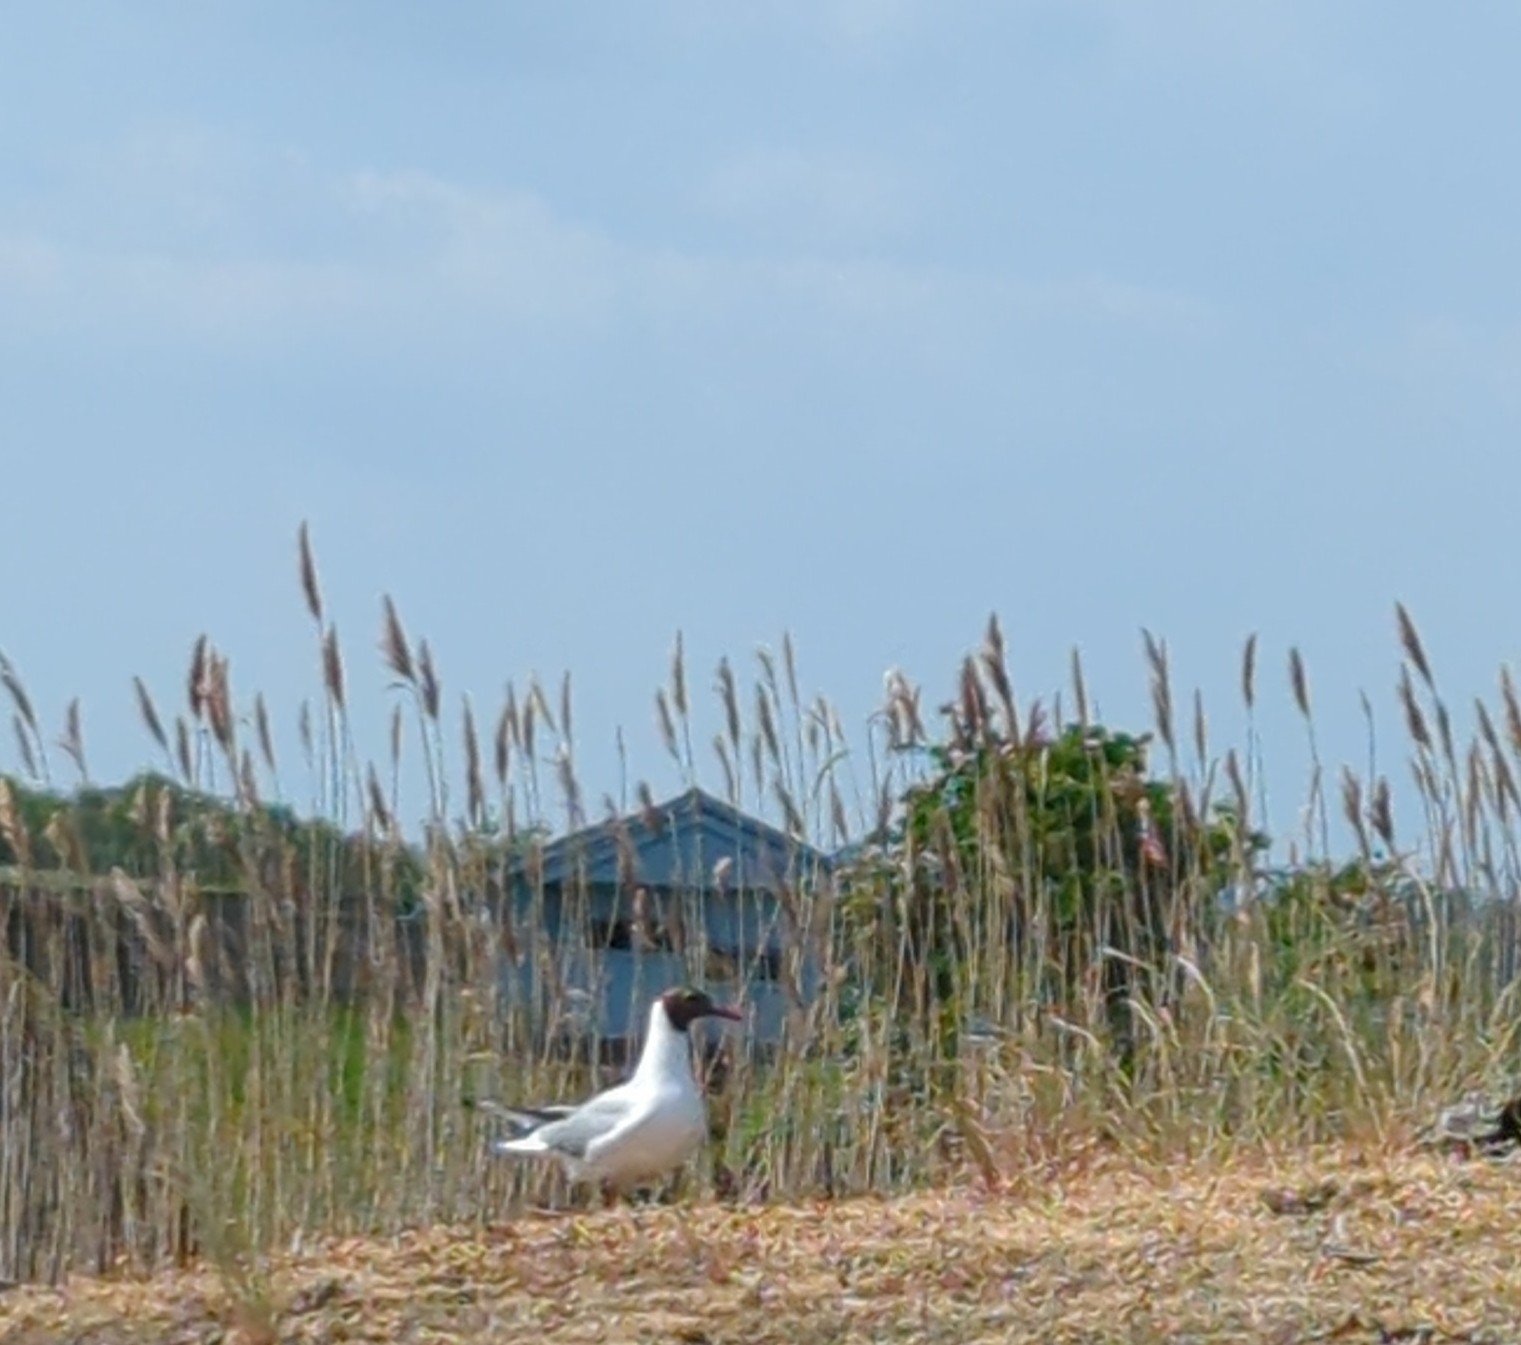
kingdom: Animalia
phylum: Chordata
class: Aves
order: Charadriiformes
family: Laridae
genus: Chroicocephalus
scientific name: Chroicocephalus ridibundus
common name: Black-headed gull
